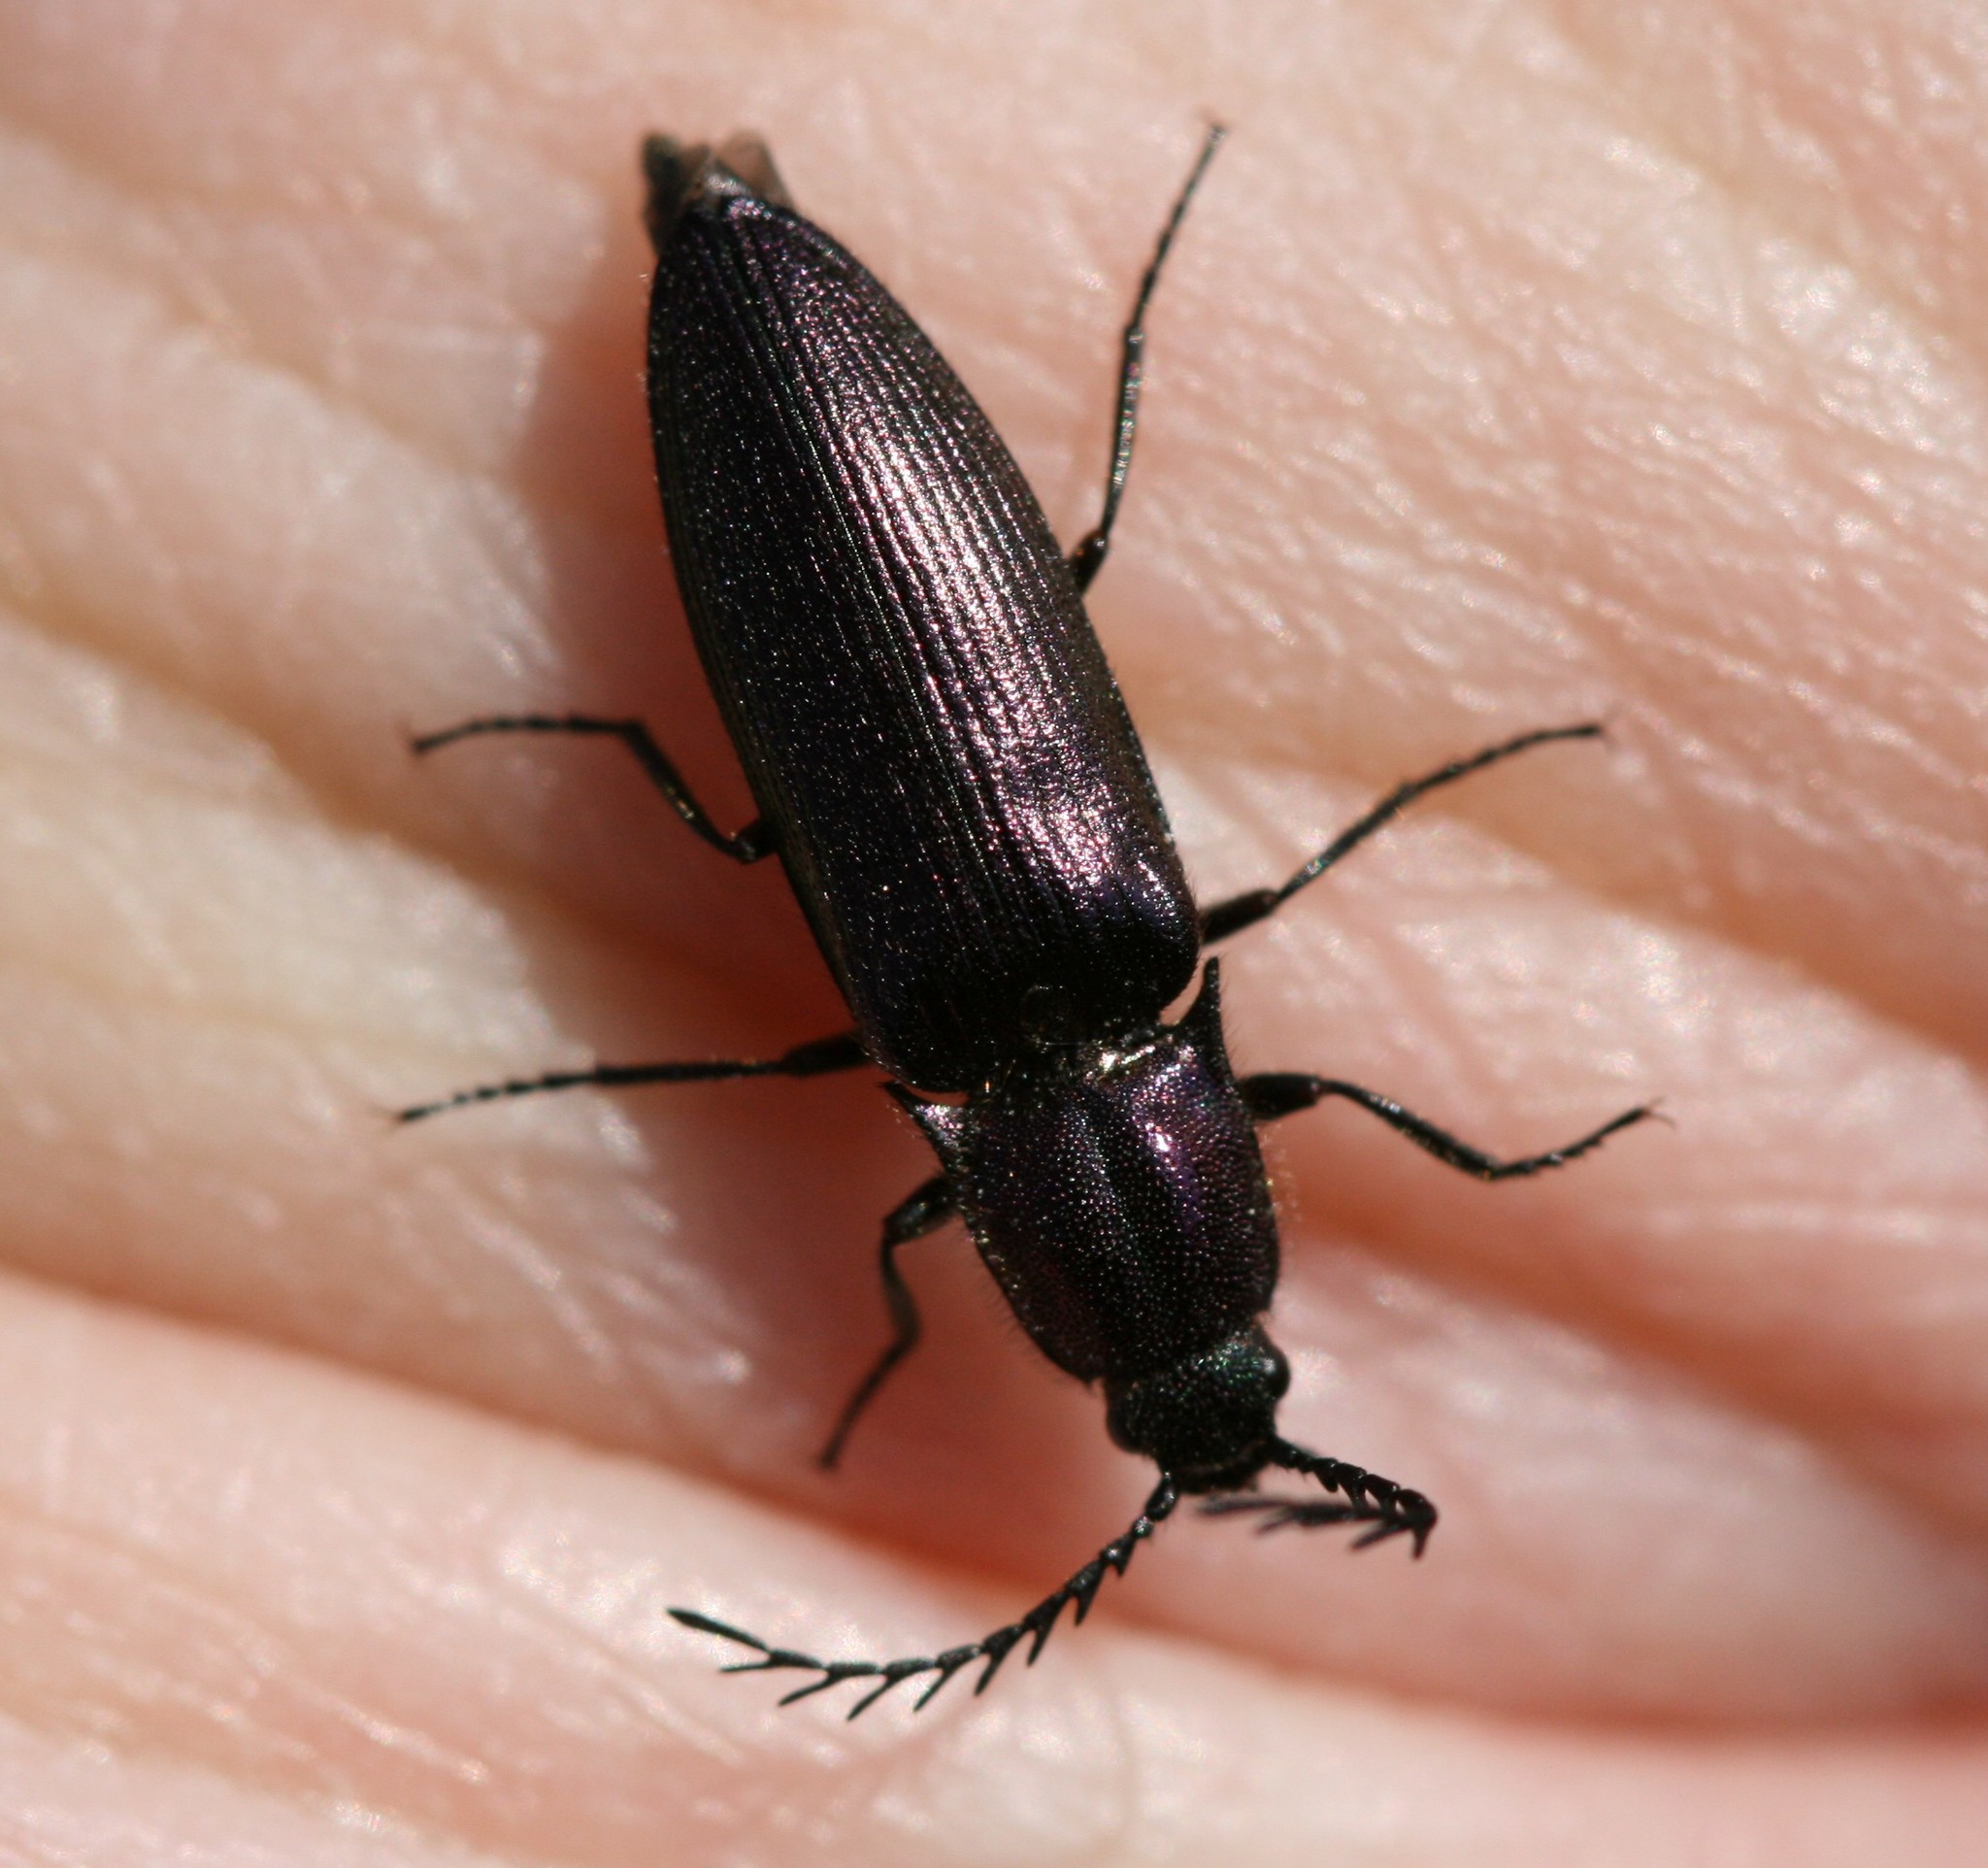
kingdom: Animalia
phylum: Arthropoda
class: Insecta
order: Coleoptera
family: Elateridae
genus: Ctenicera
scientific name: Ctenicera cuprea
